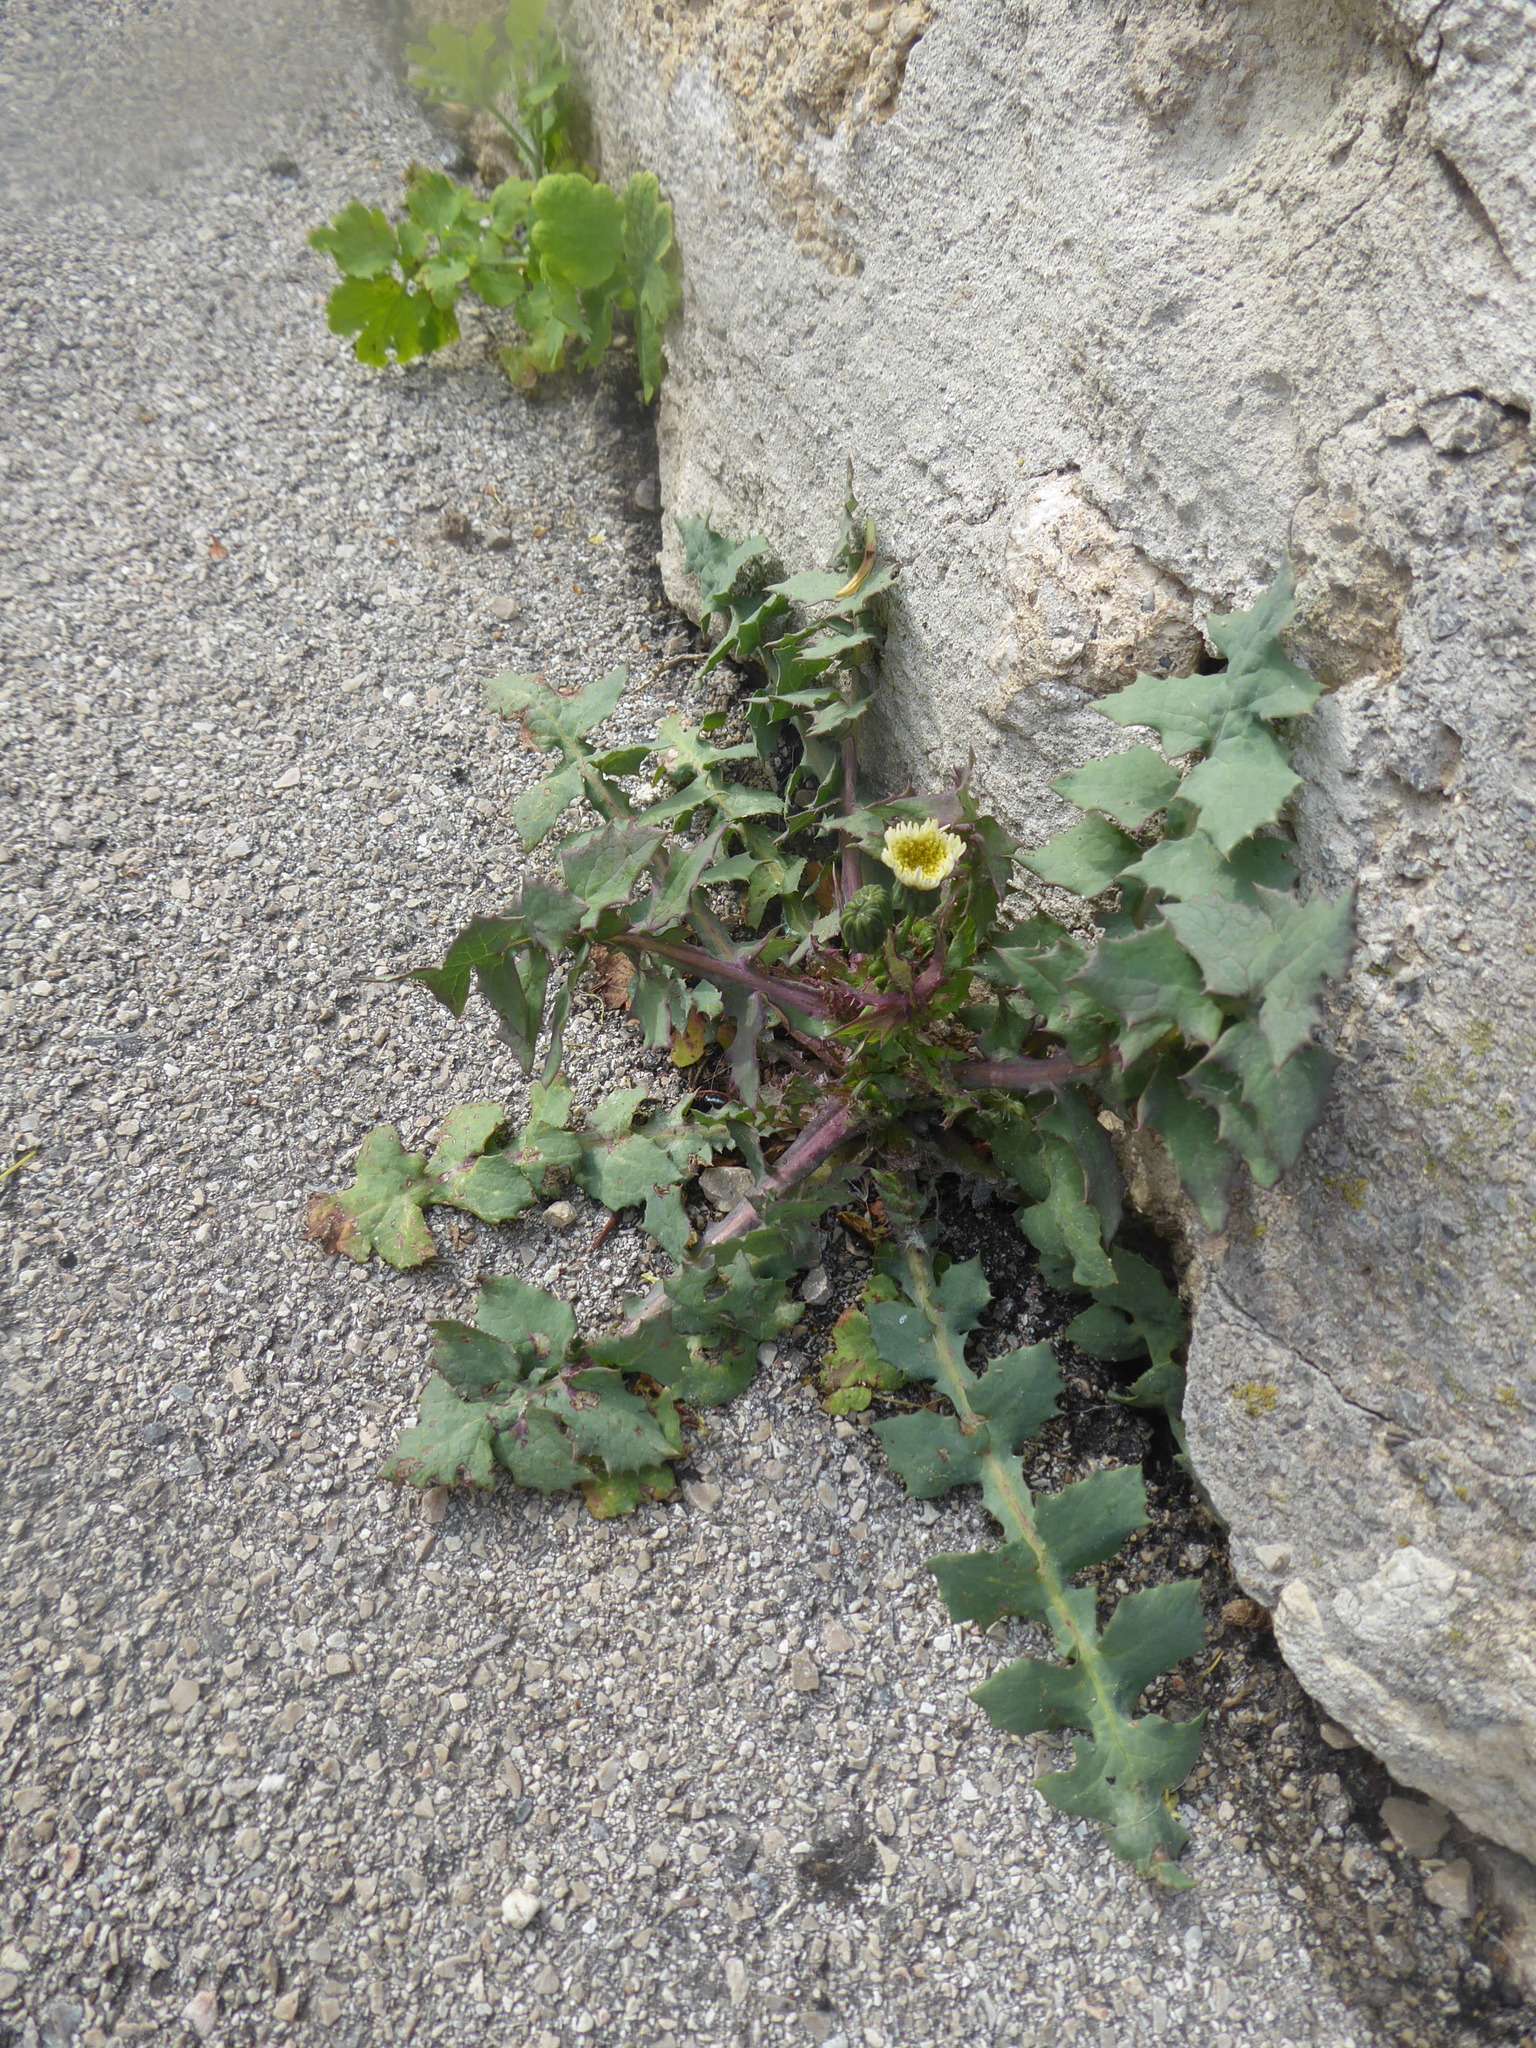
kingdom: Plantae
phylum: Tracheophyta
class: Magnoliopsida
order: Asterales
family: Asteraceae
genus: Sonchus
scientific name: Sonchus oleraceus
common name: Common sowthistle
